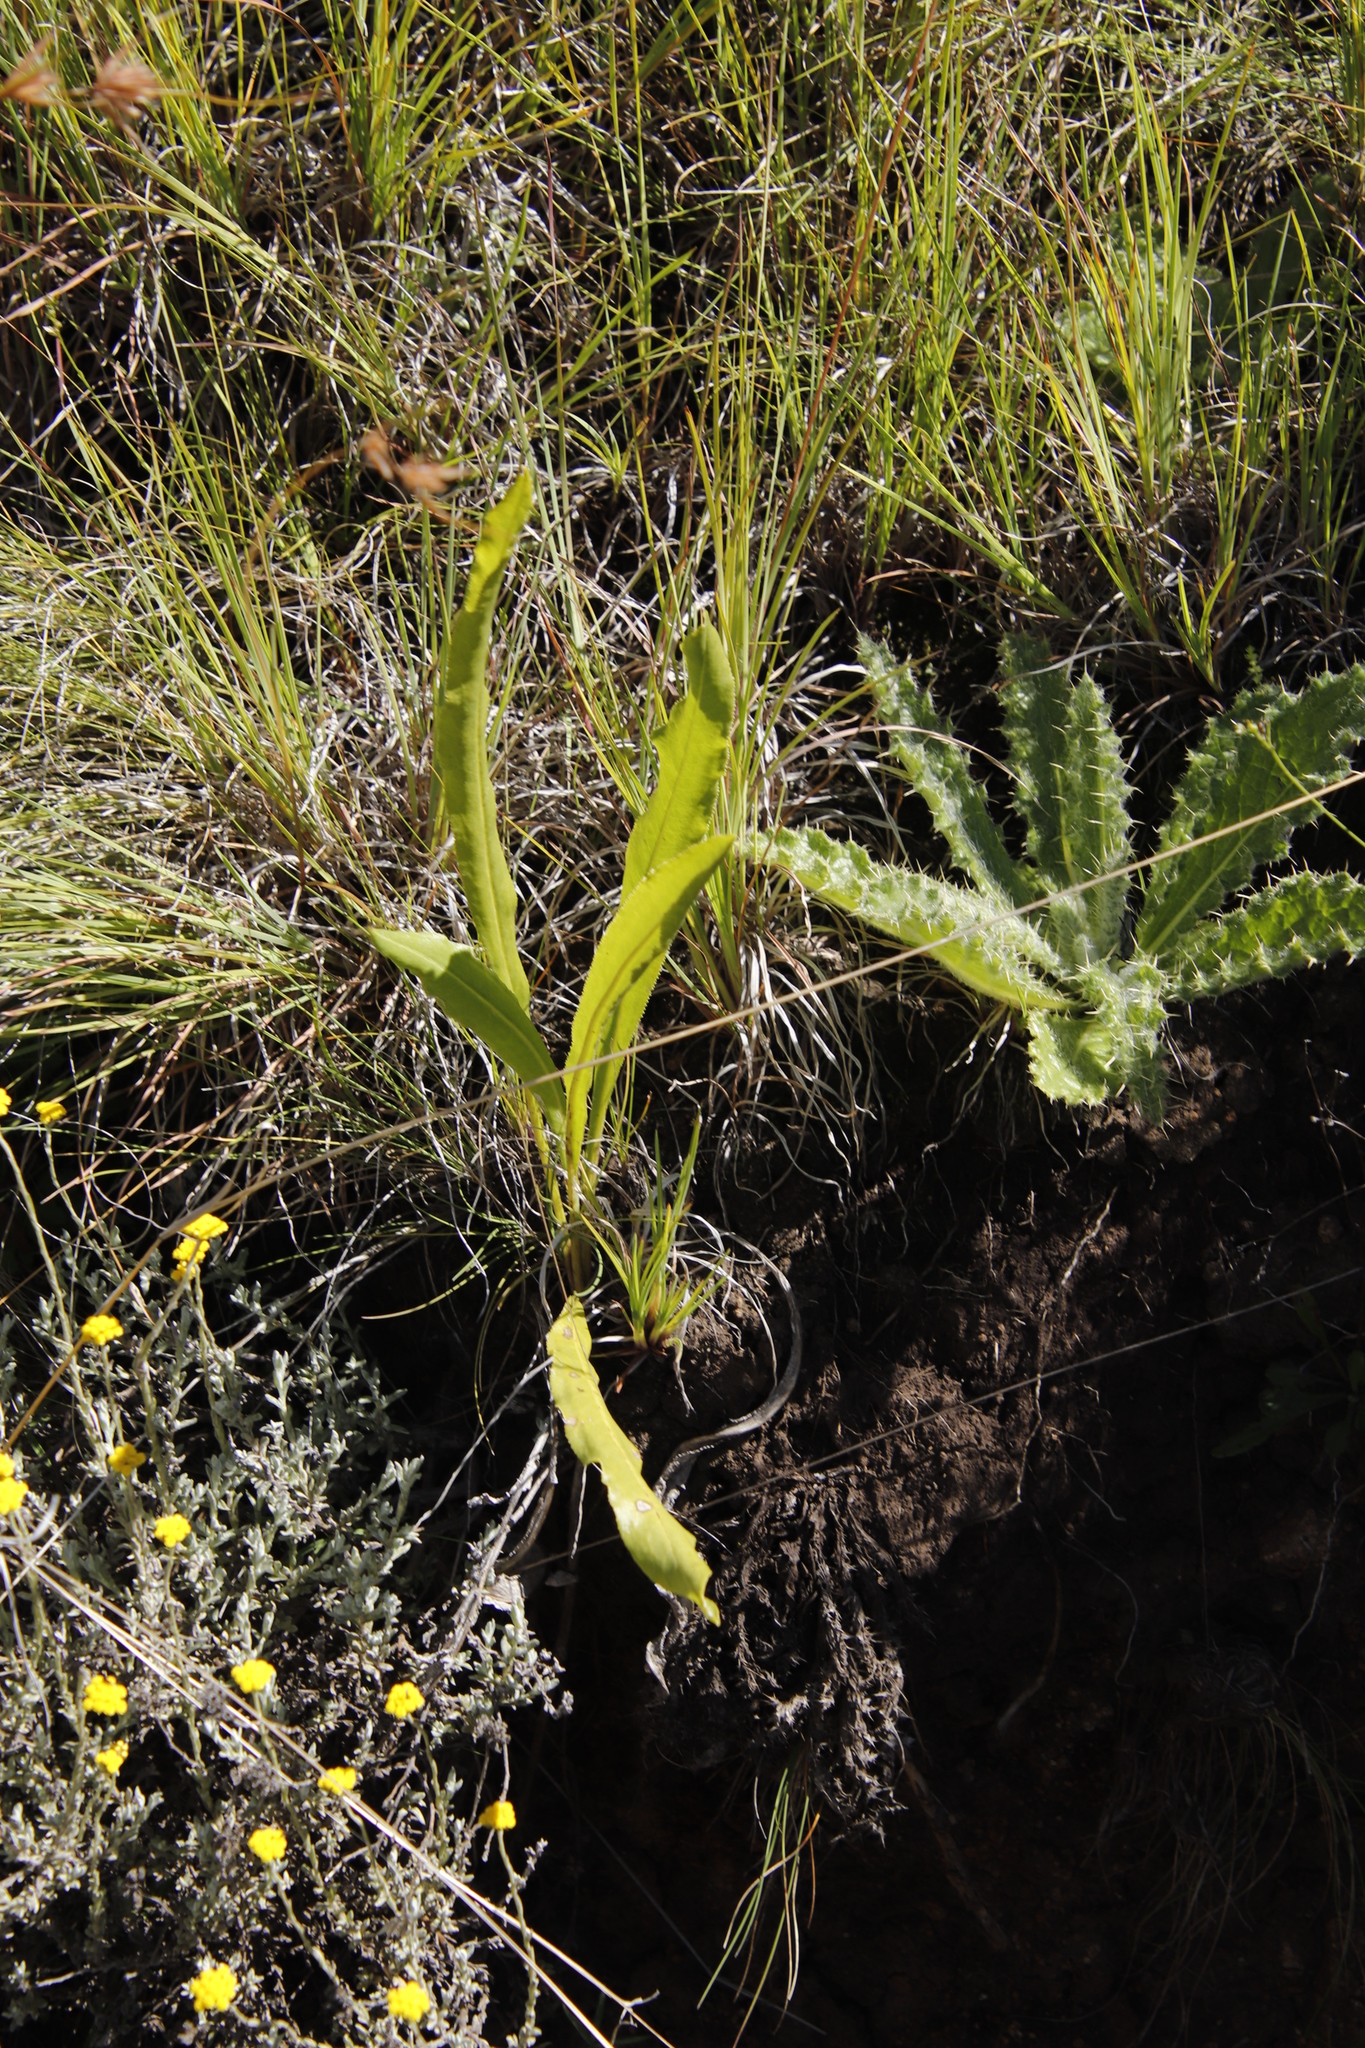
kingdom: Plantae
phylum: Tracheophyta
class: Magnoliopsida
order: Asterales
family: Asteraceae
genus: Berkheya
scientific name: Berkheya purpurea
